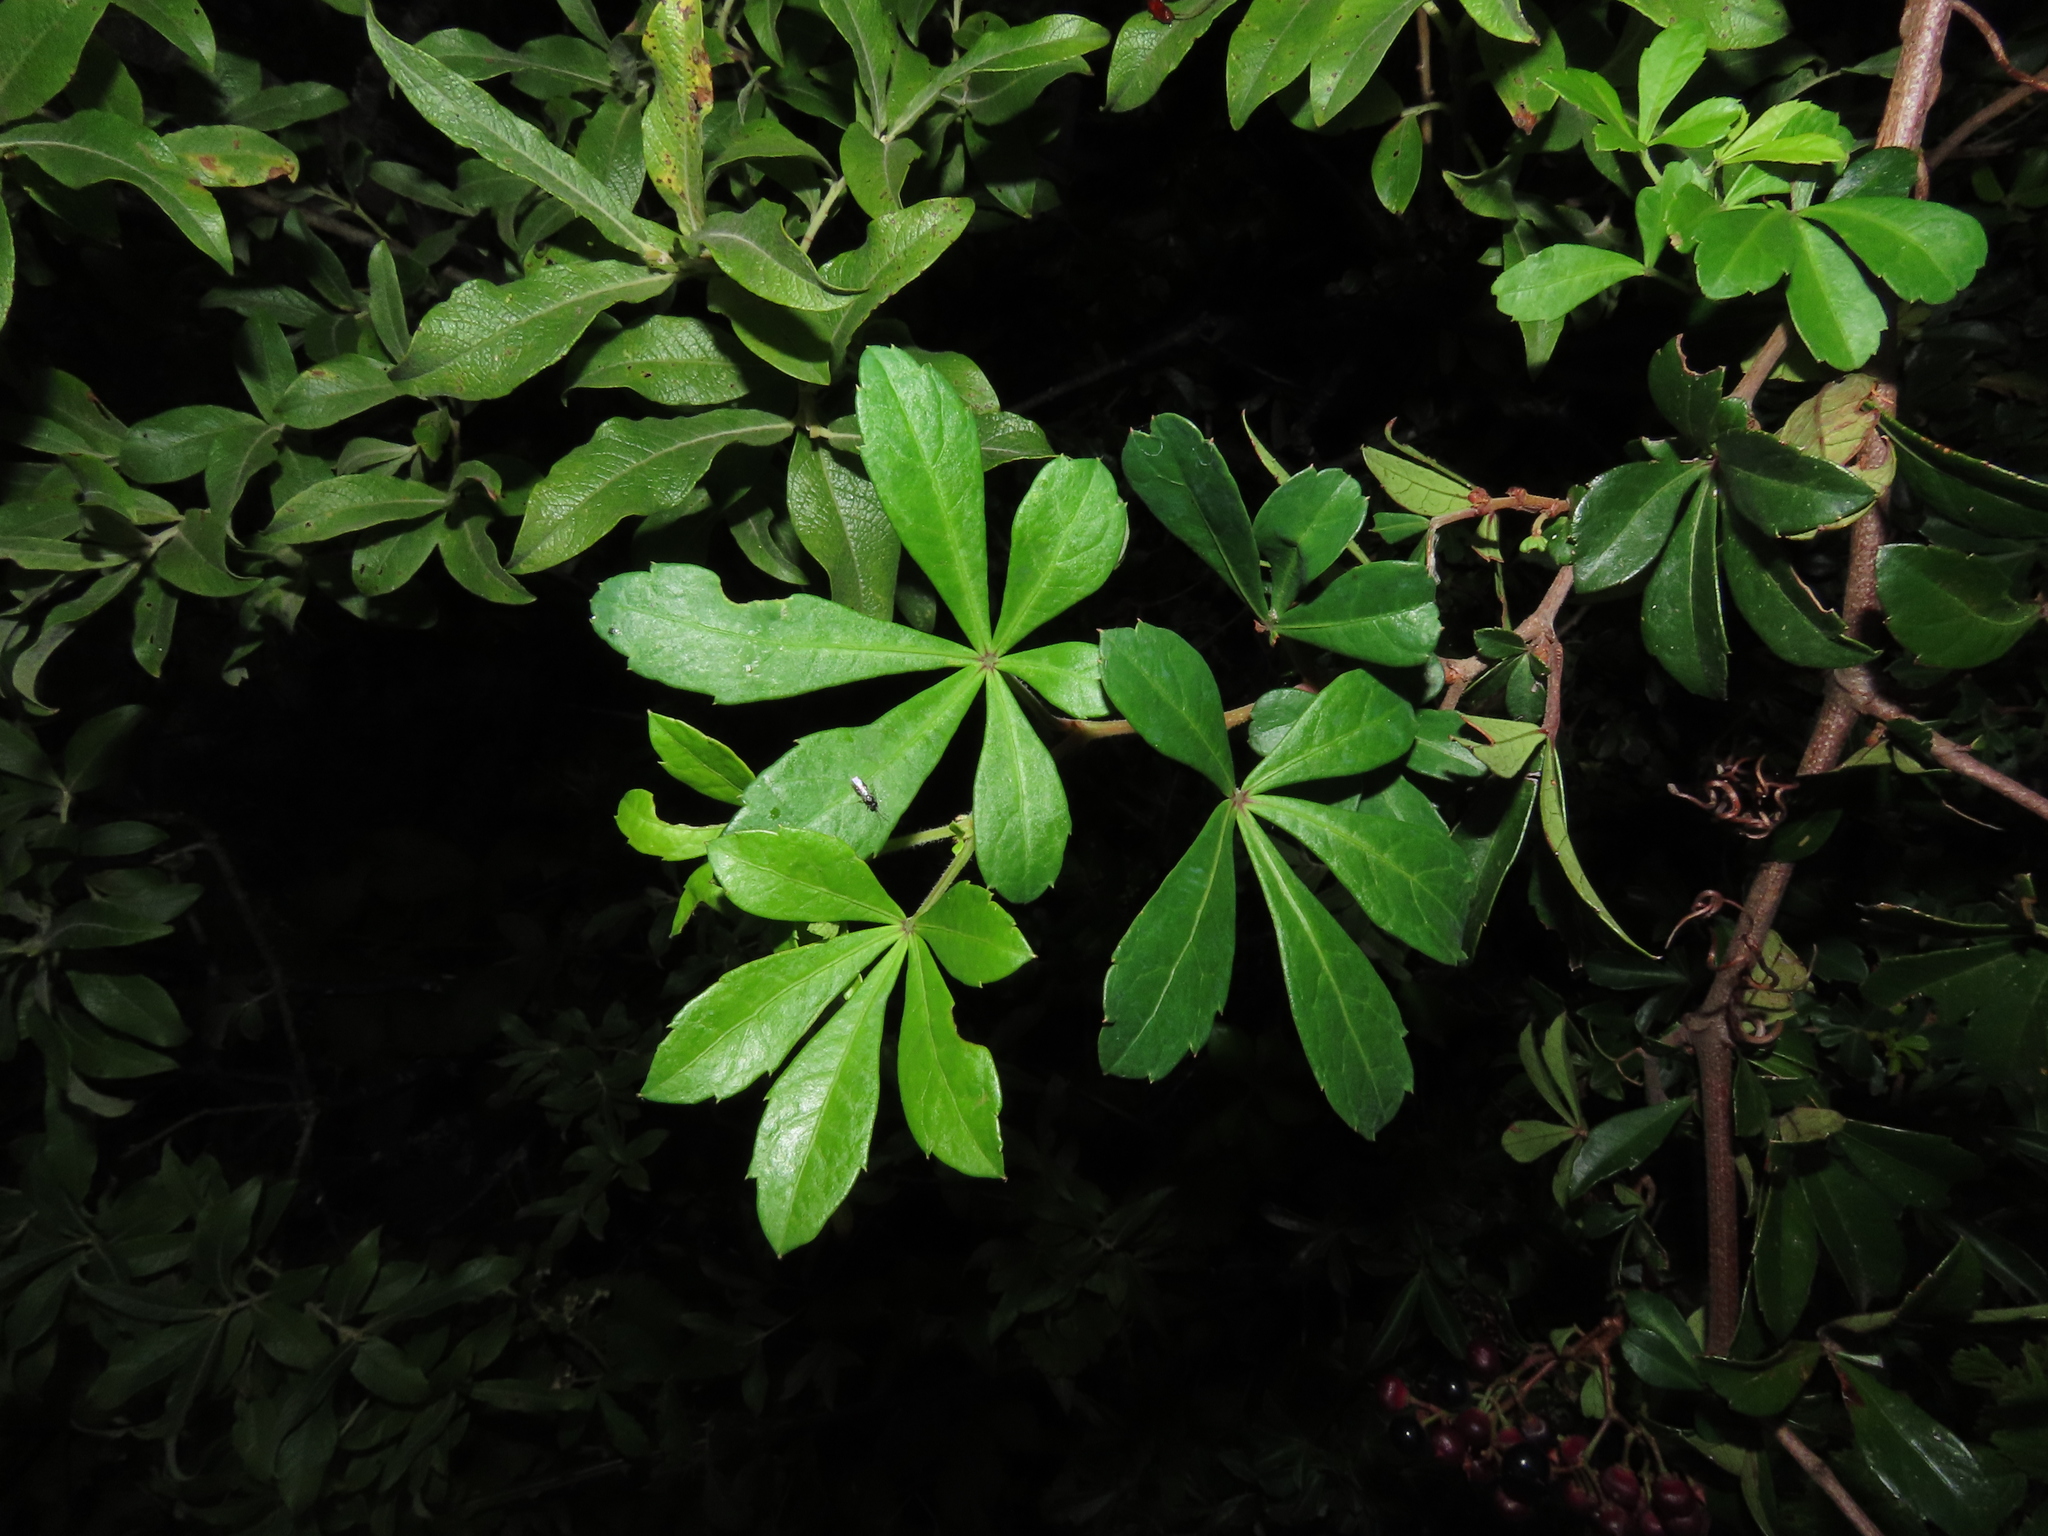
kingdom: Plantae
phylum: Tracheophyta
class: Magnoliopsida
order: Vitales
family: Vitaceae
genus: Clematicissus
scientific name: Clematicissus striata
